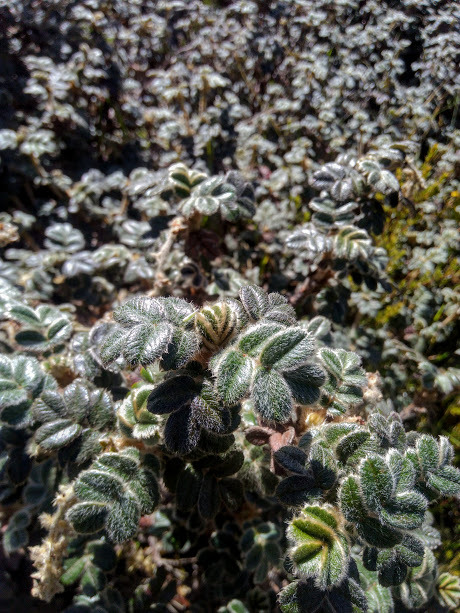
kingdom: Plantae
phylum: Tracheophyta
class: Magnoliopsida
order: Rosales
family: Rosaceae
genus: Polylepis
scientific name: Polylepis quadrijuga
